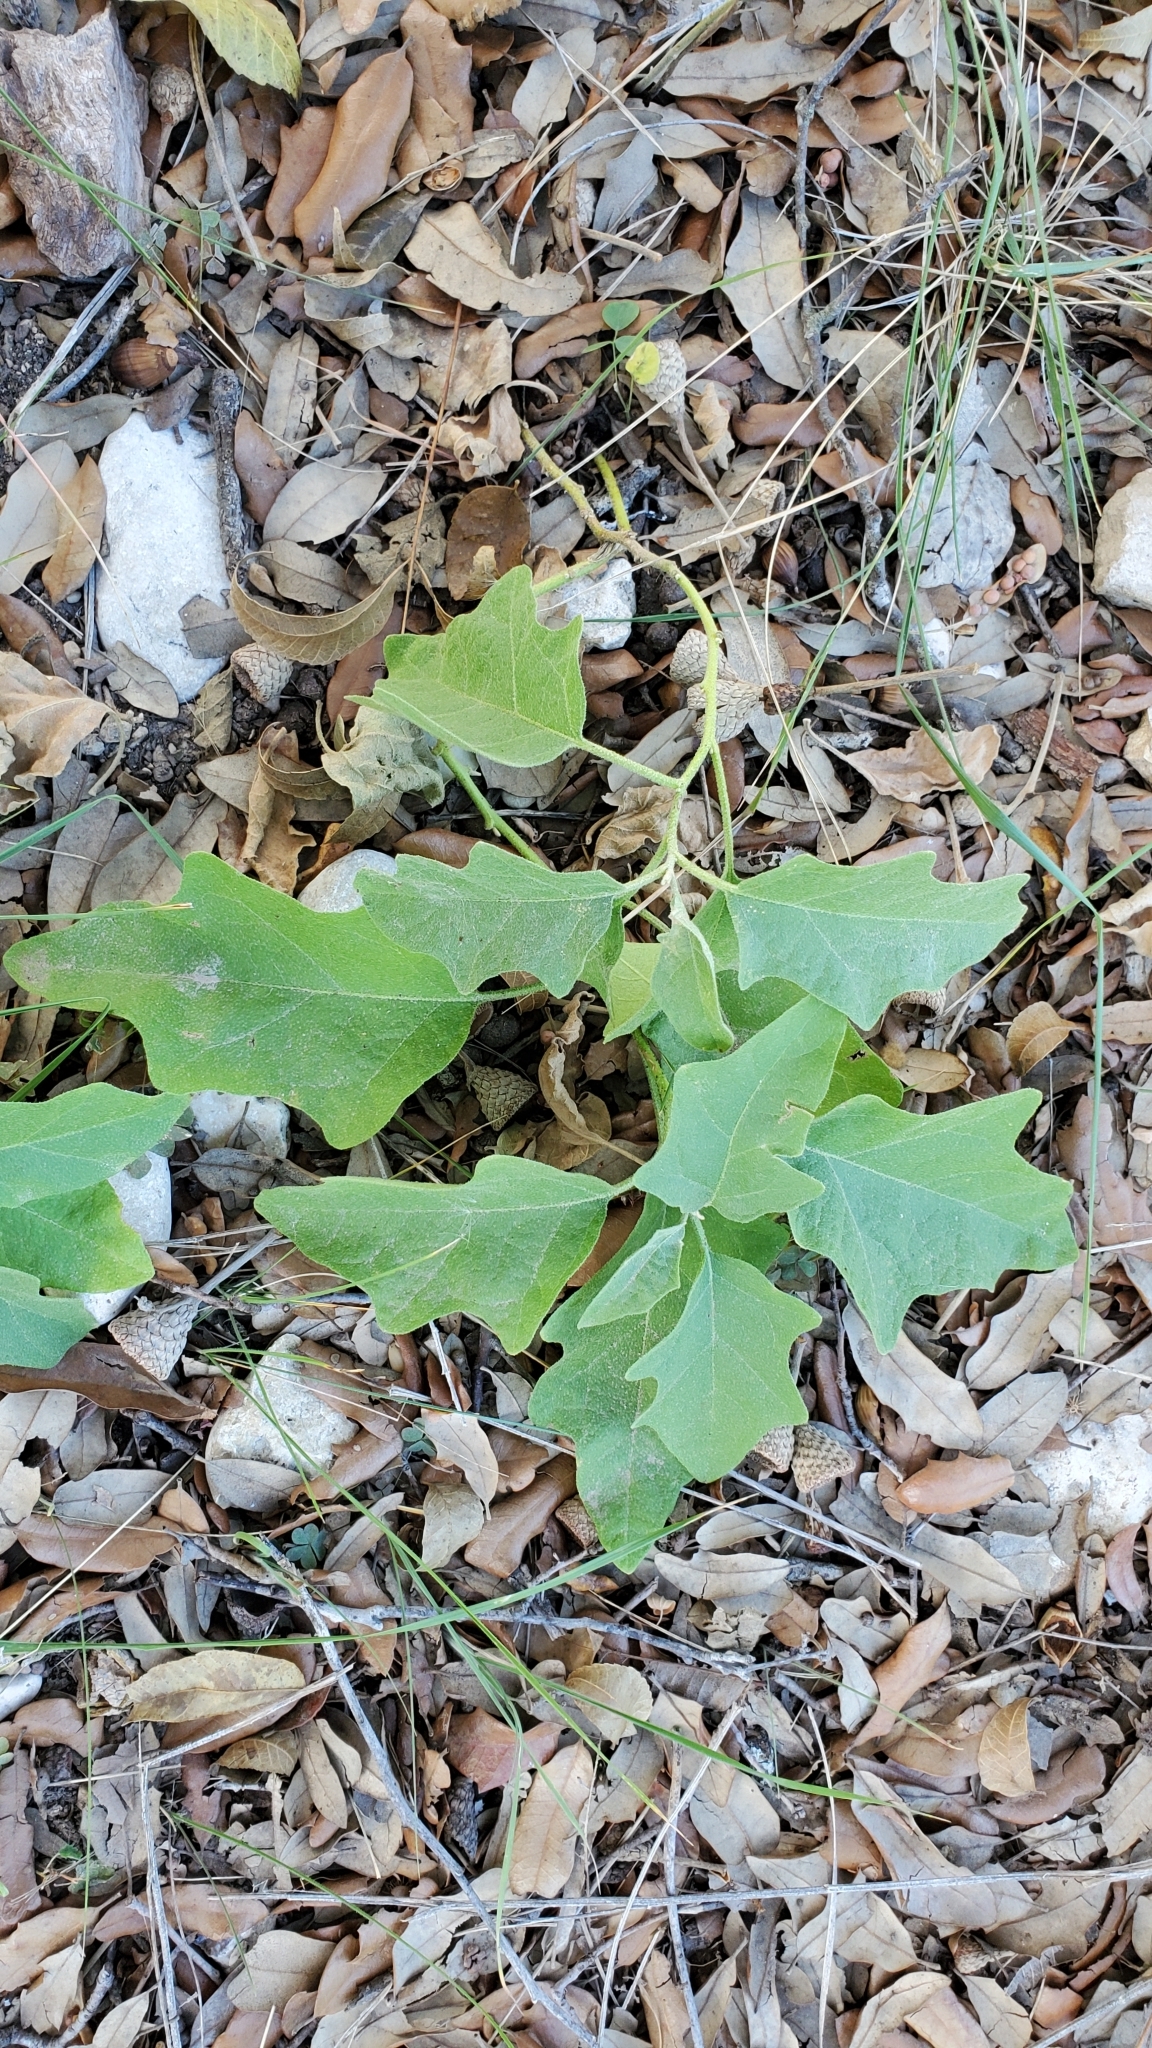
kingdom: Plantae
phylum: Tracheophyta
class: Magnoliopsida
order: Solanales
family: Solanaceae
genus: Solanum
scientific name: Solanum dimidiatum
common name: Carolina horse-nettle
